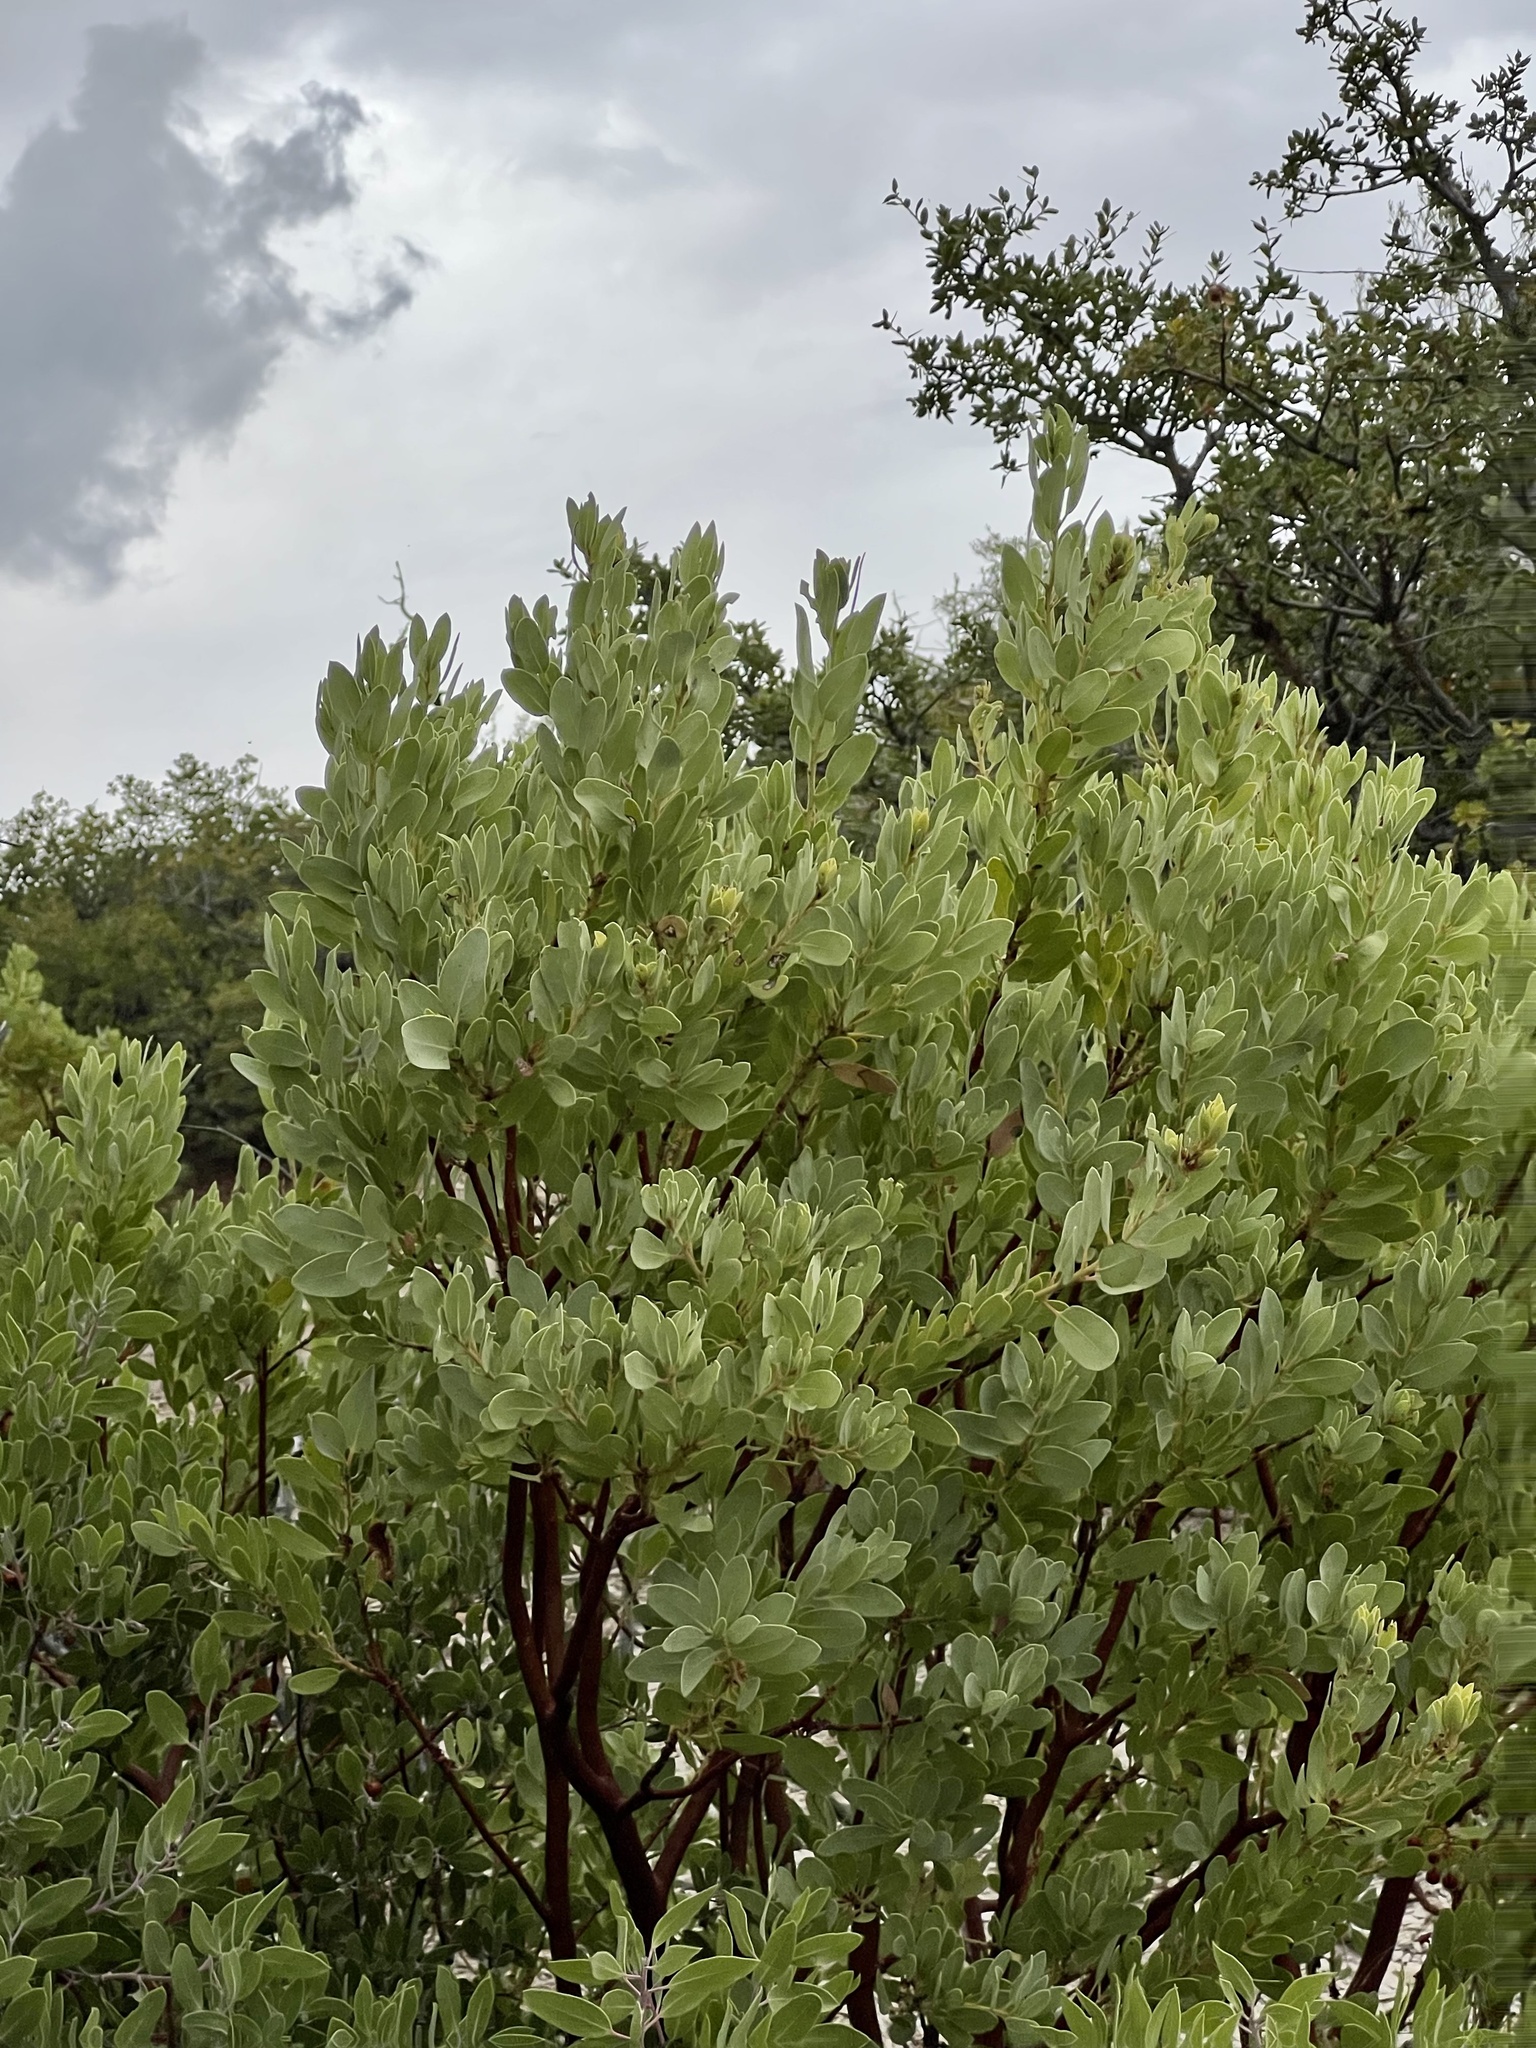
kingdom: Plantae
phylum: Tracheophyta
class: Magnoliopsida
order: Ericales
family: Ericaceae
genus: Arctostaphylos
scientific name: Arctostaphylos pringlei
